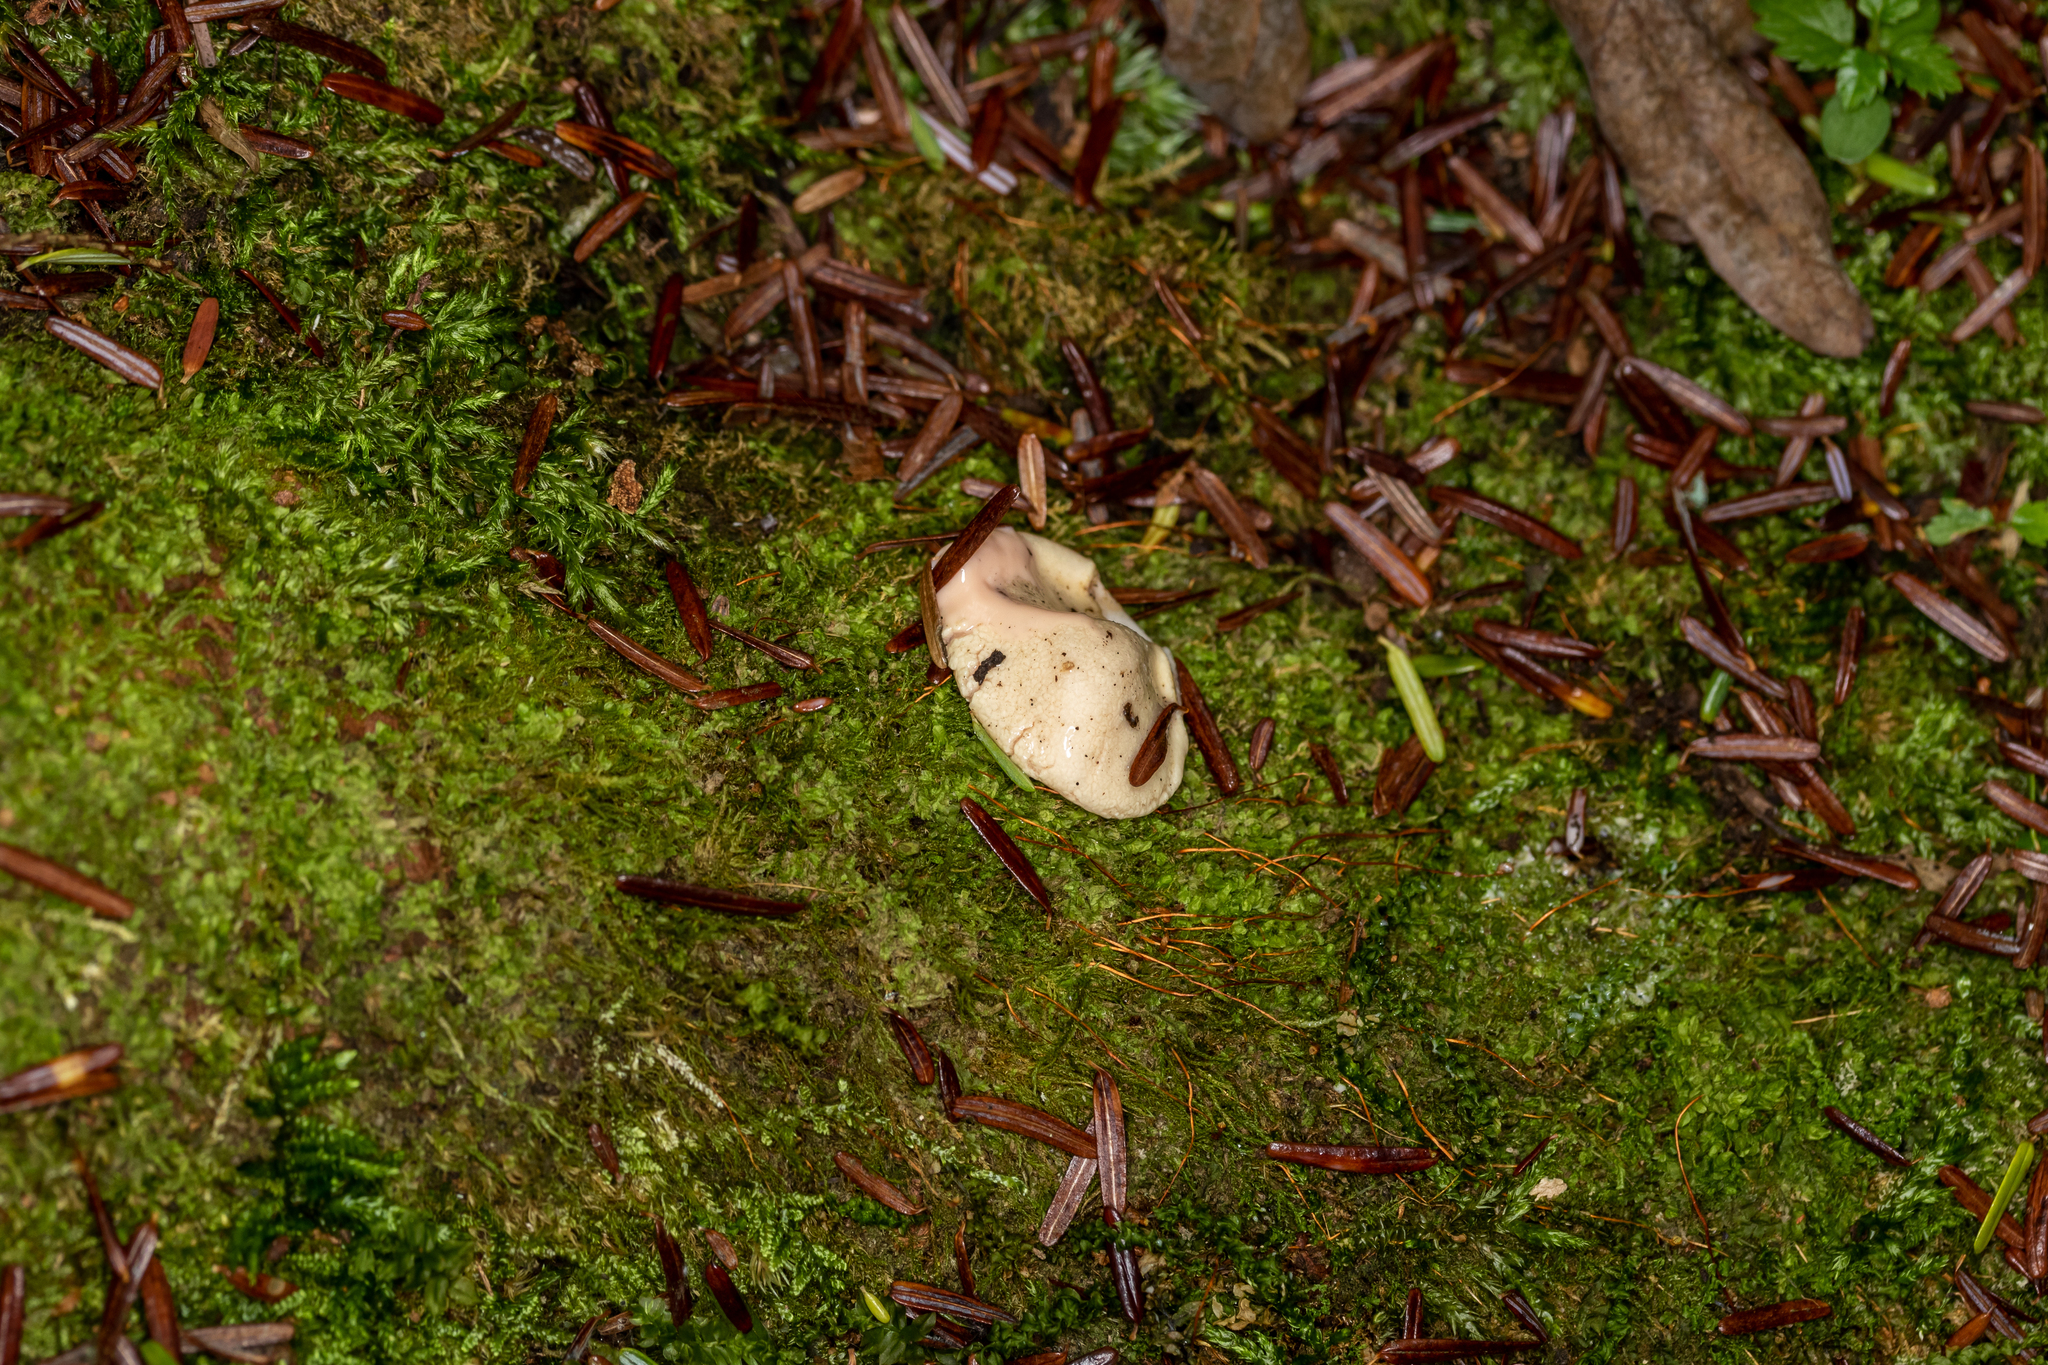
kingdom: Protozoa
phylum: Mycetozoa
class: Myxomycetes
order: Cribrariales
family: Tubiferaceae
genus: Reticularia
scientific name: Reticularia lycoperdon
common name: False puffball
